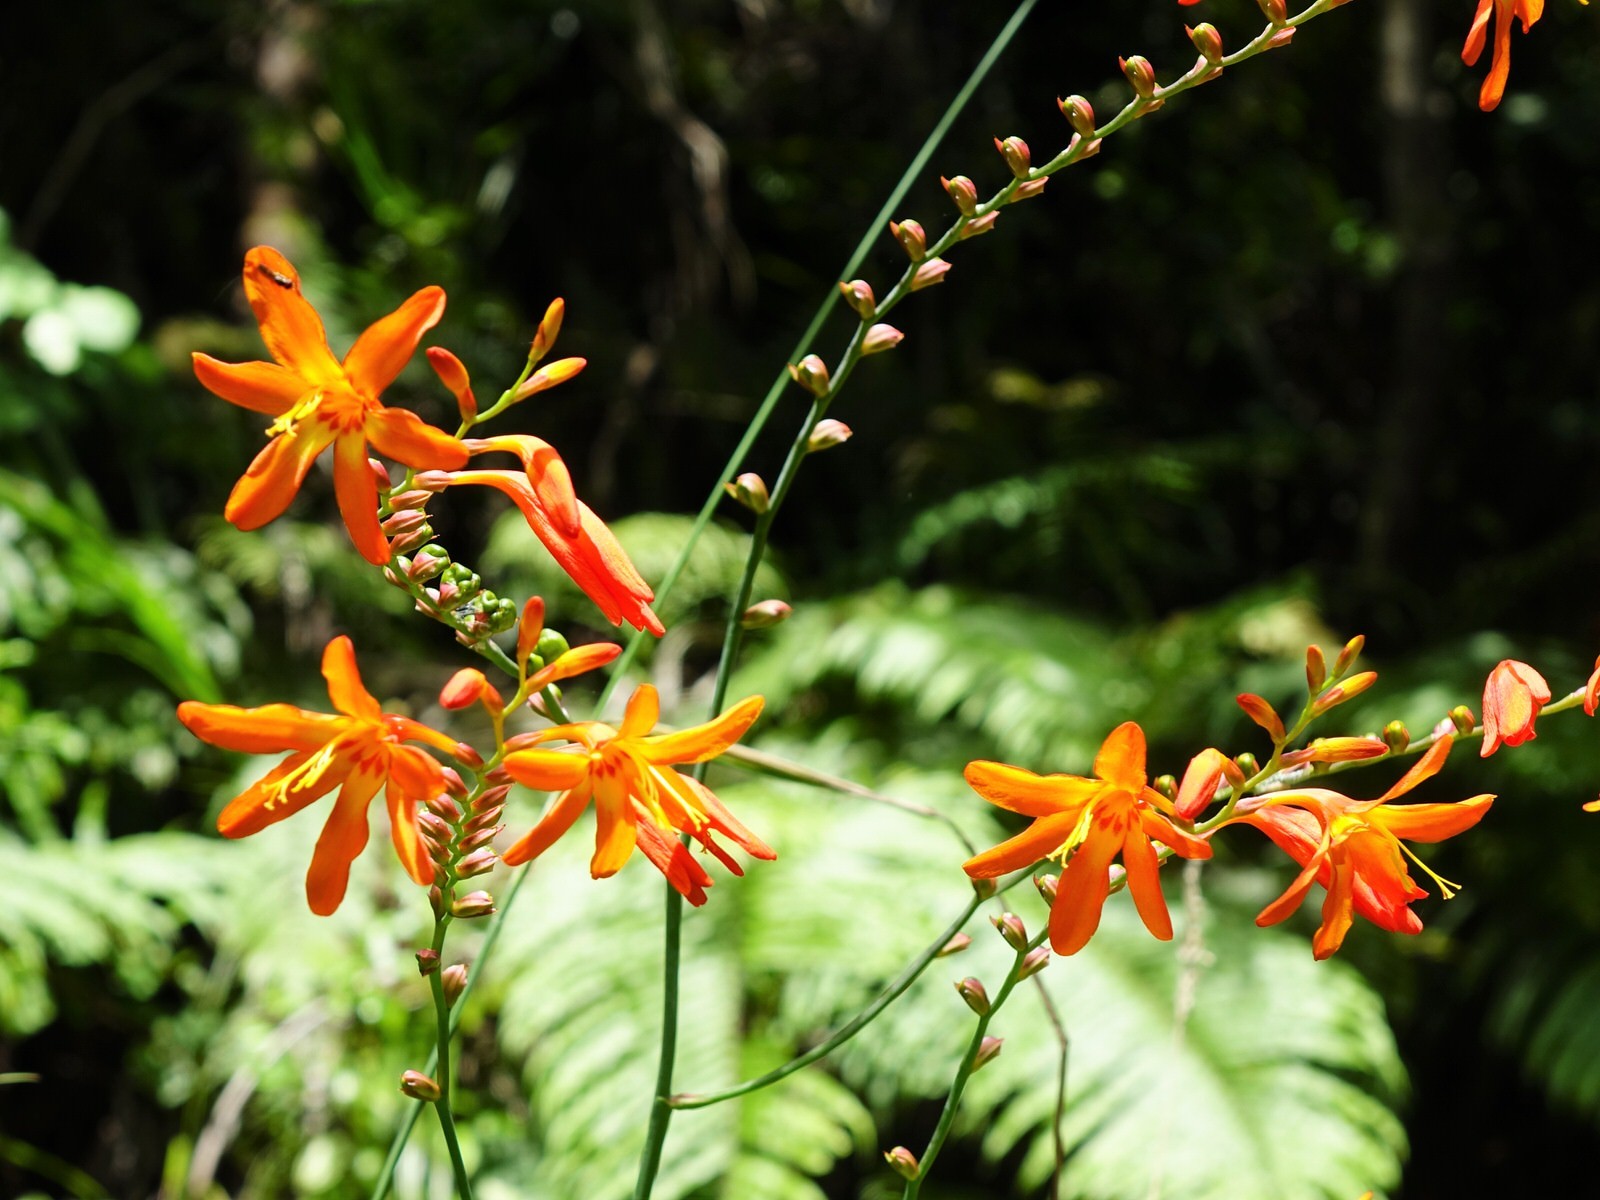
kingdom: Plantae
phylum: Tracheophyta
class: Liliopsida
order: Asparagales
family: Iridaceae
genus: Crocosmia
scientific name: Crocosmia crocosmiiflora
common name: Montbretia
